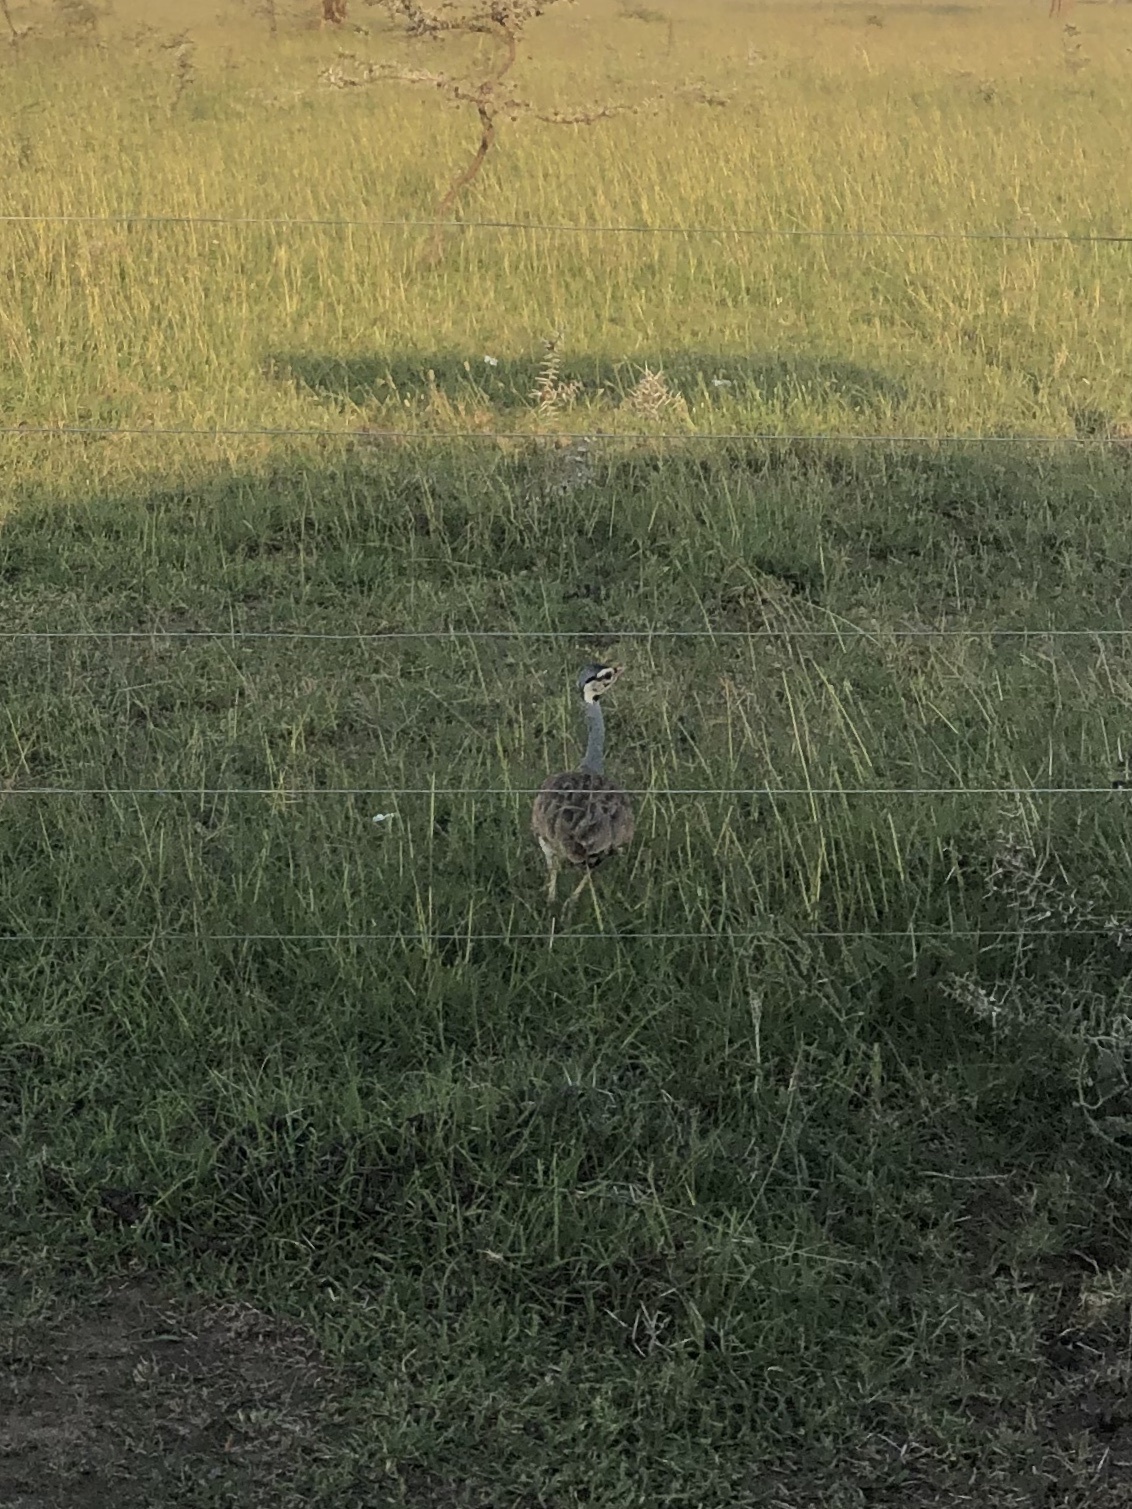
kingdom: Animalia
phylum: Chordata
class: Aves
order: Otidiformes
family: Otididae
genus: Eupodotis
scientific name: Eupodotis senegalensis
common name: White-bellied bustard
